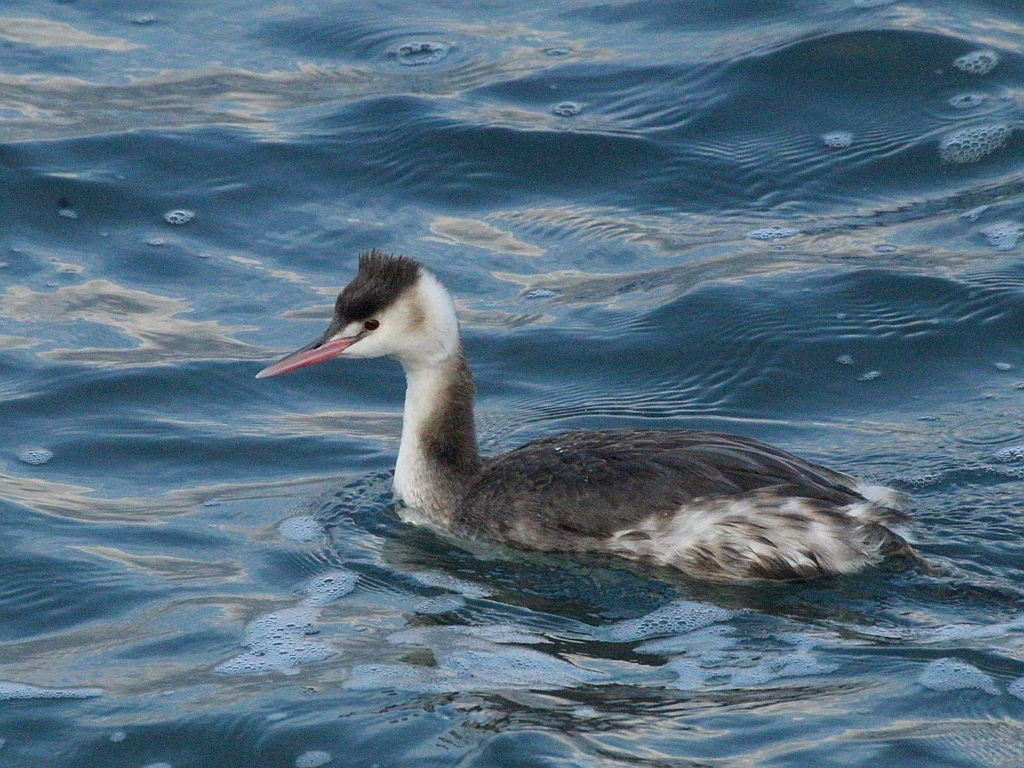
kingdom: Animalia
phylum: Chordata
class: Aves
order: Podicipediformes
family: Podicipedidae
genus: Podiceps
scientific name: Podiceps cristatus
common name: Great crested grebe
